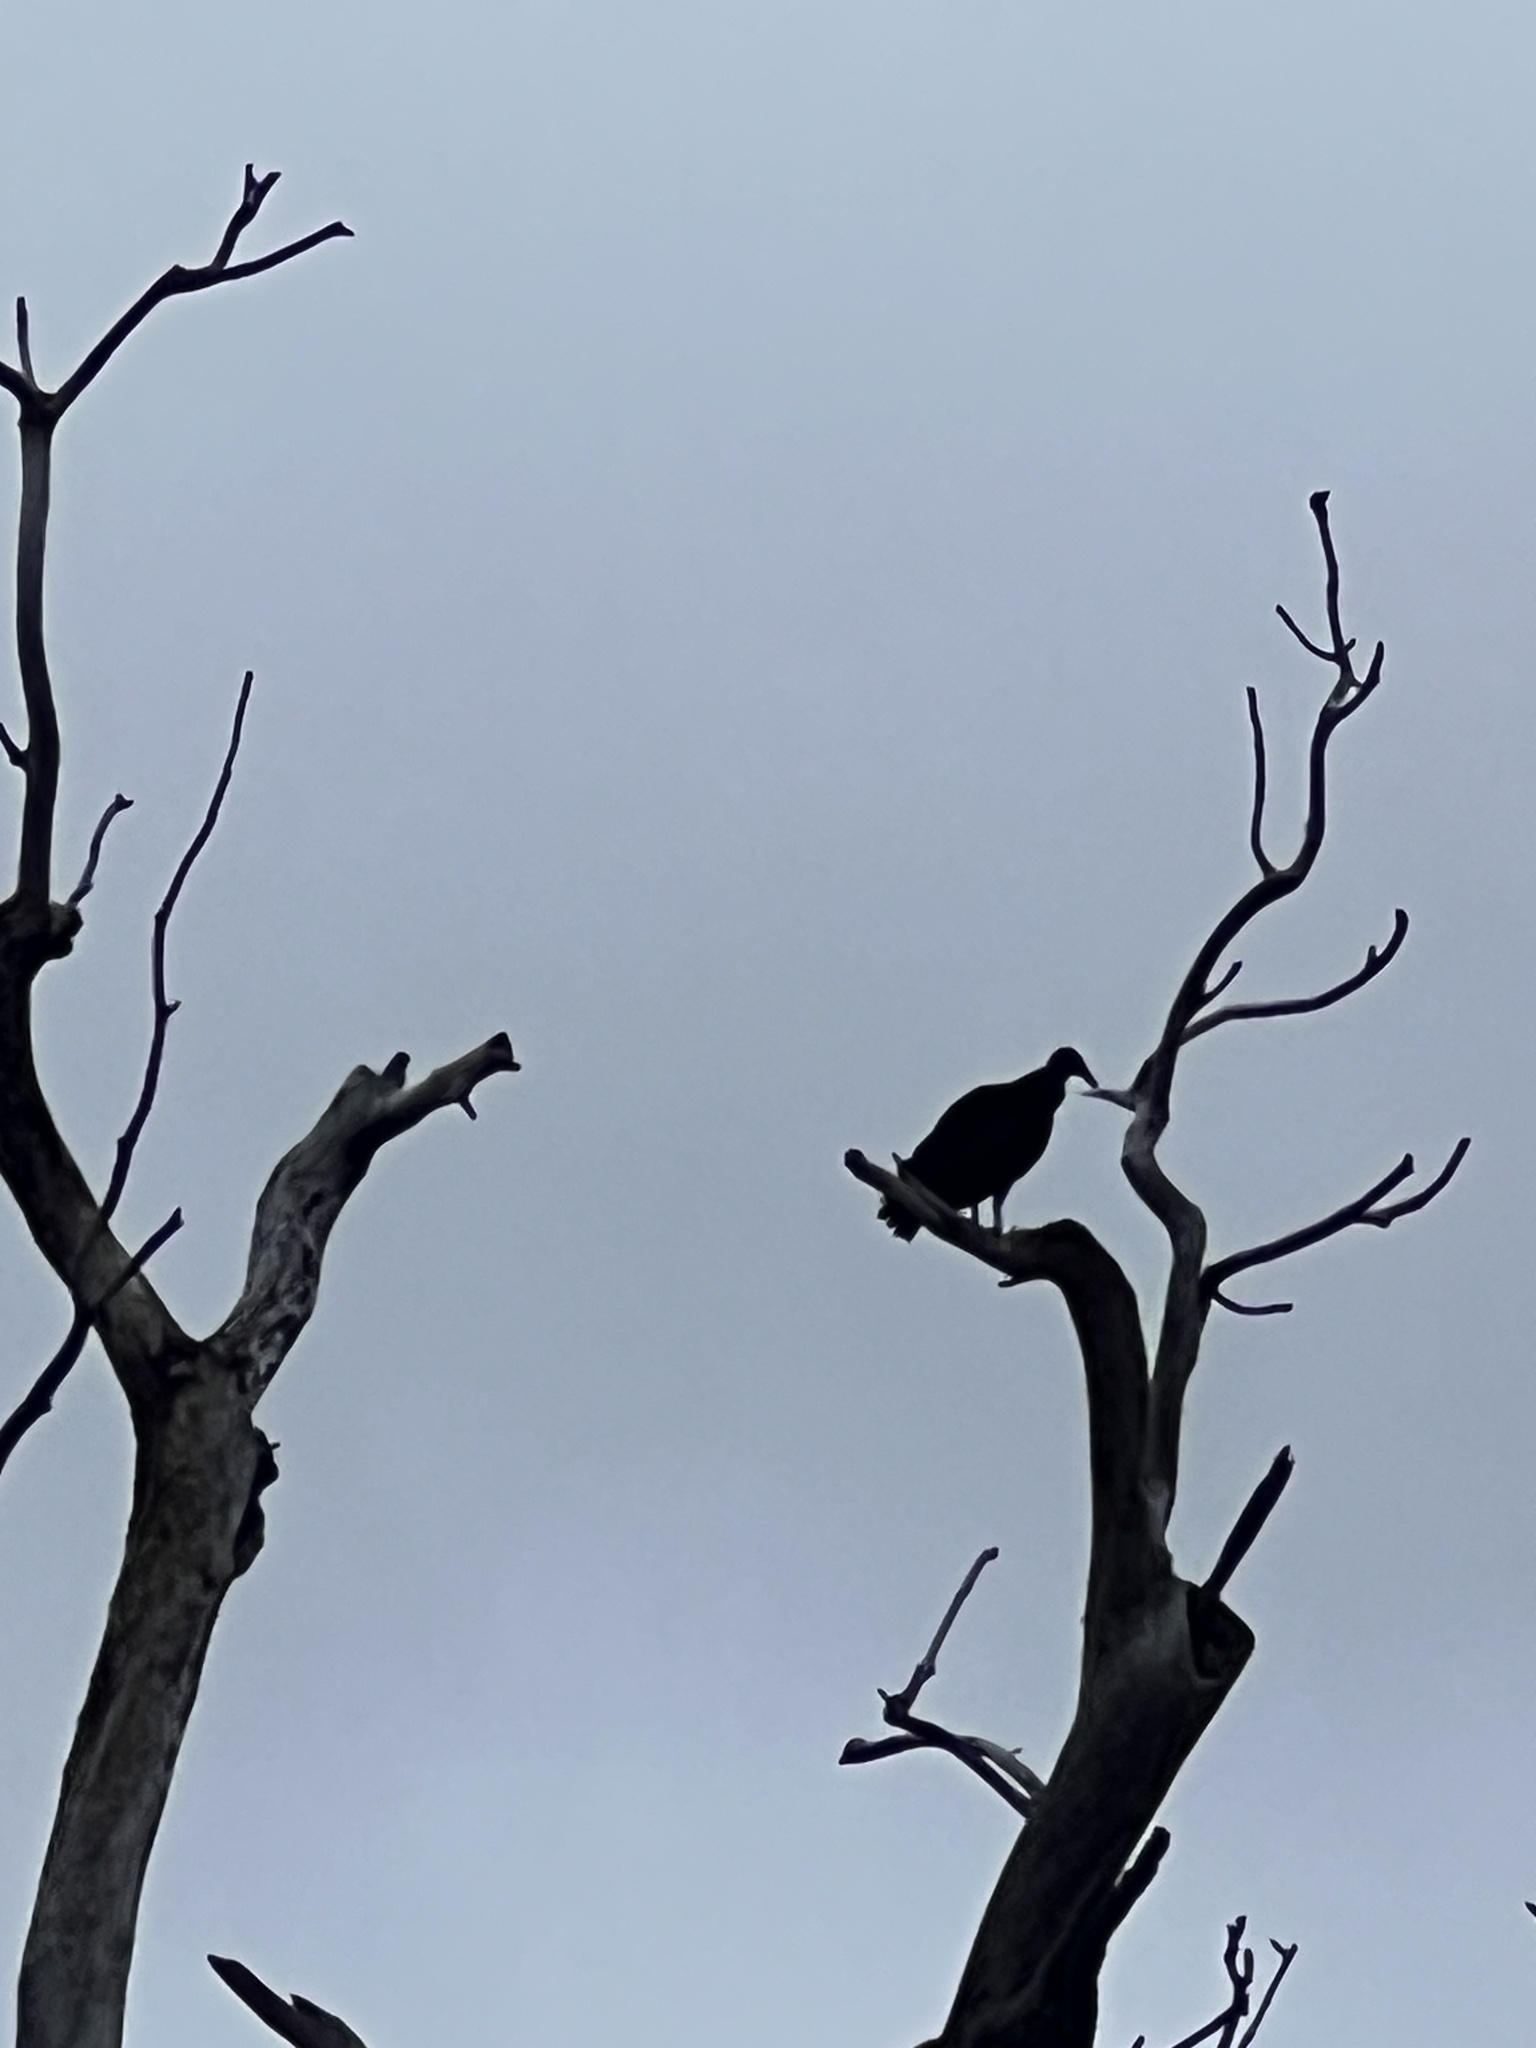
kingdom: Animalia
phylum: Chordata
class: Aves
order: Accipitriformes
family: Cathartidae
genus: Coragyps
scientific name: Coragyps atratus
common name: Black vulture
